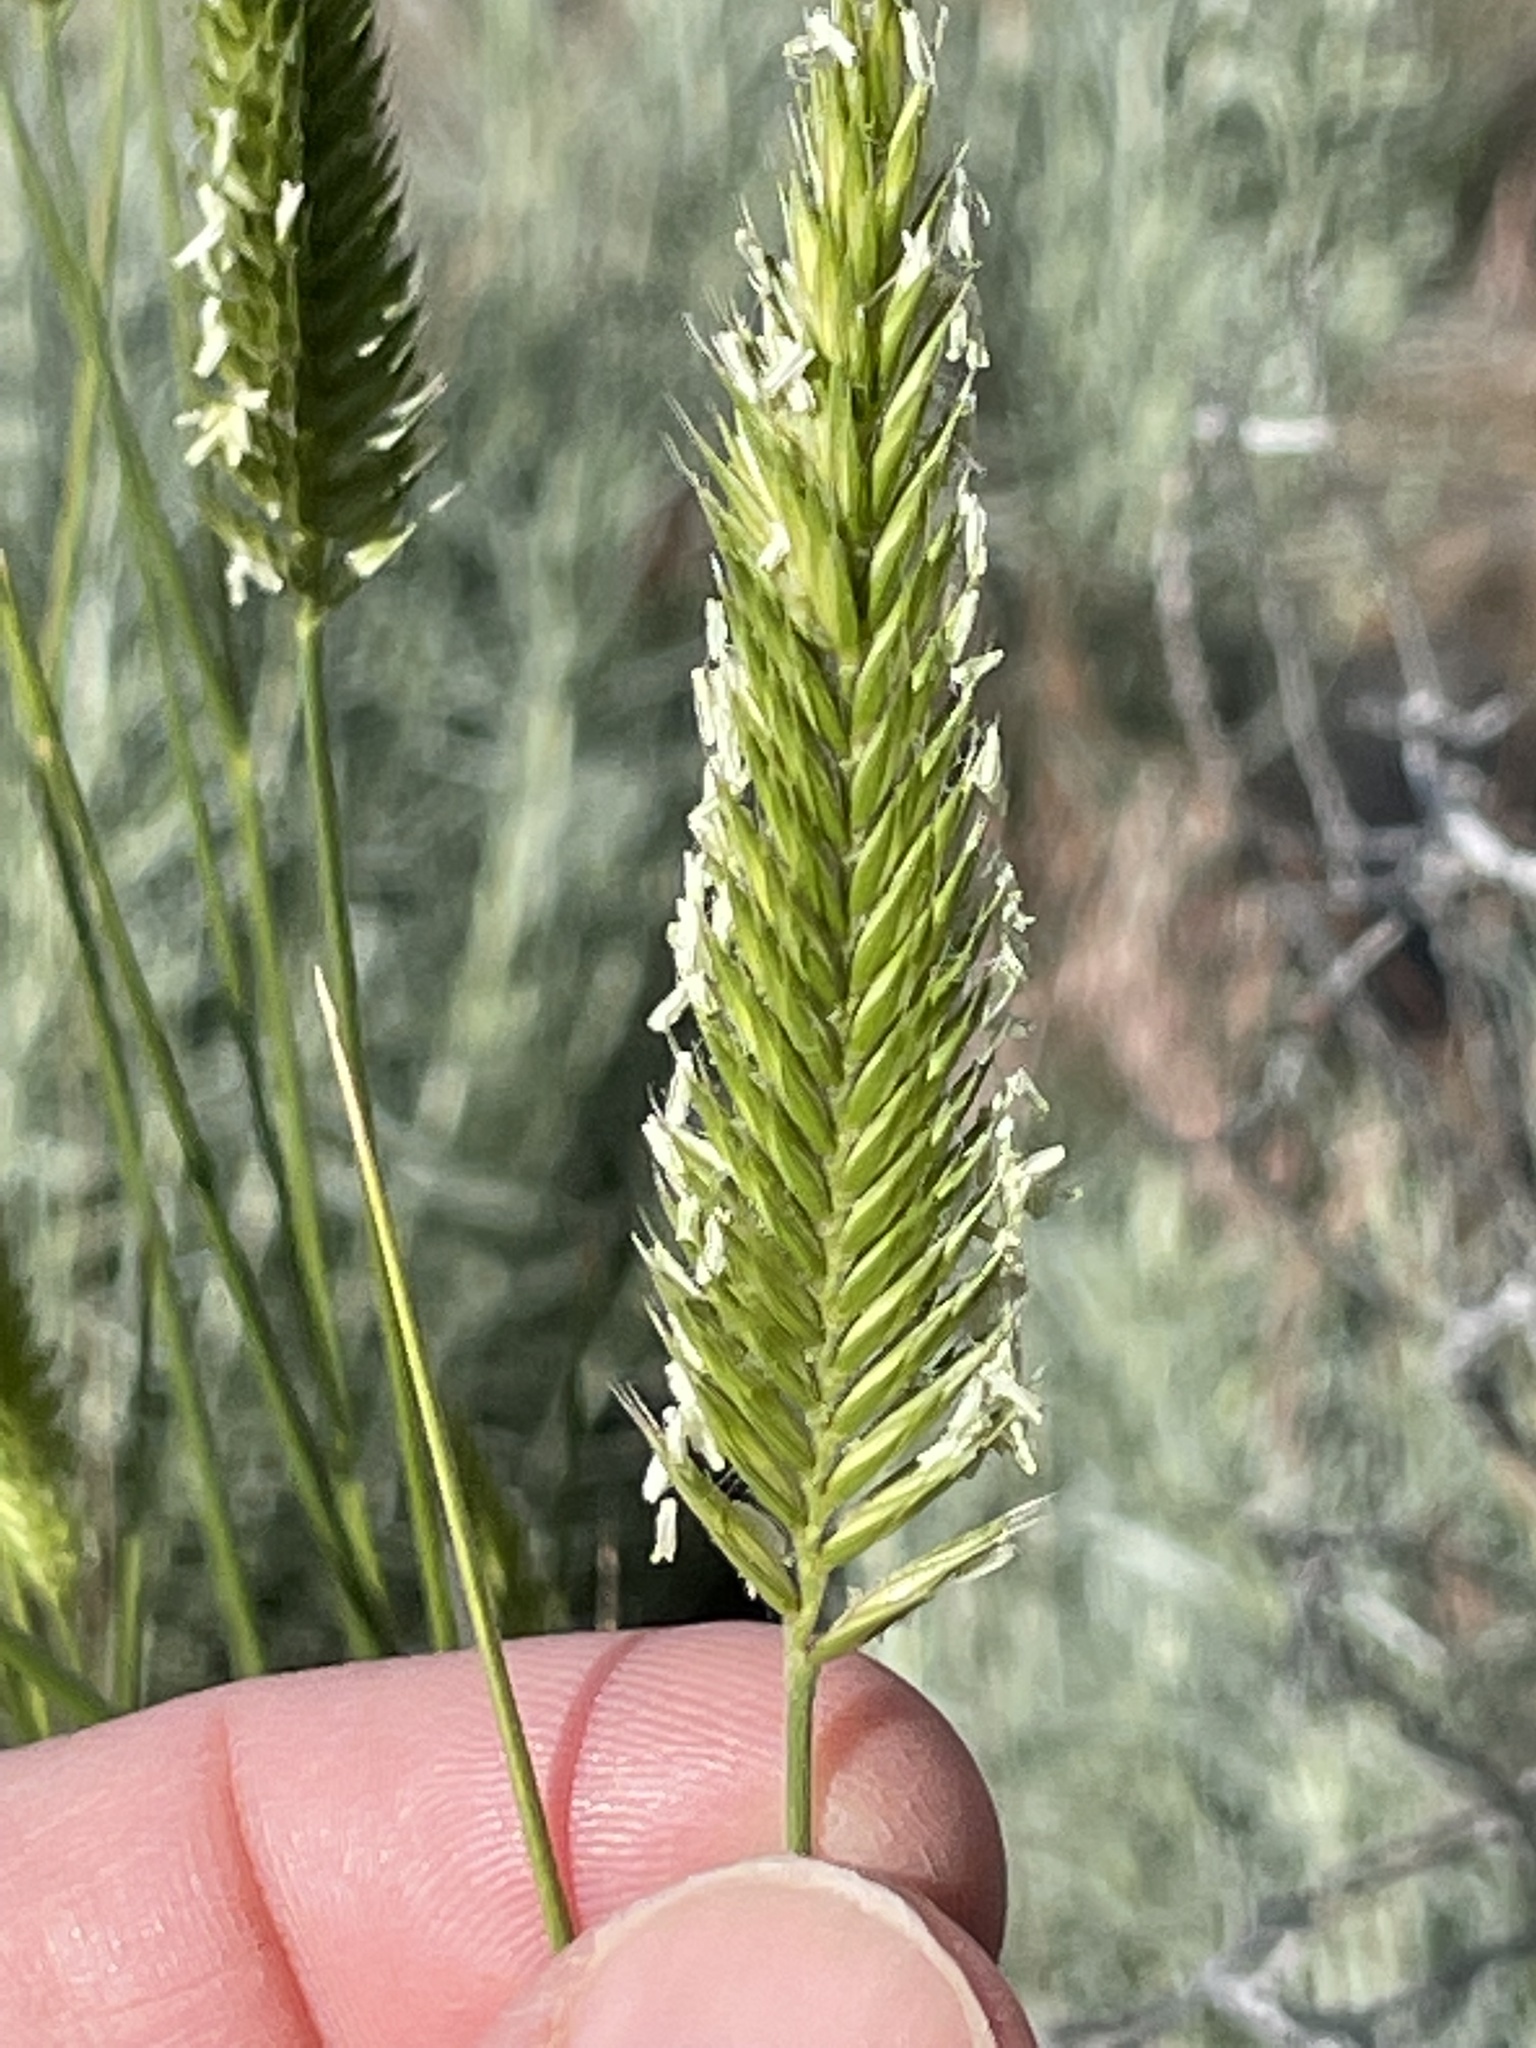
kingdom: Plantae
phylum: Tracheophyta
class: Liliopsida
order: Poales
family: Poaceae
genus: Agropyron
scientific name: Agropyron cristatum
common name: Crested wheatgrass
